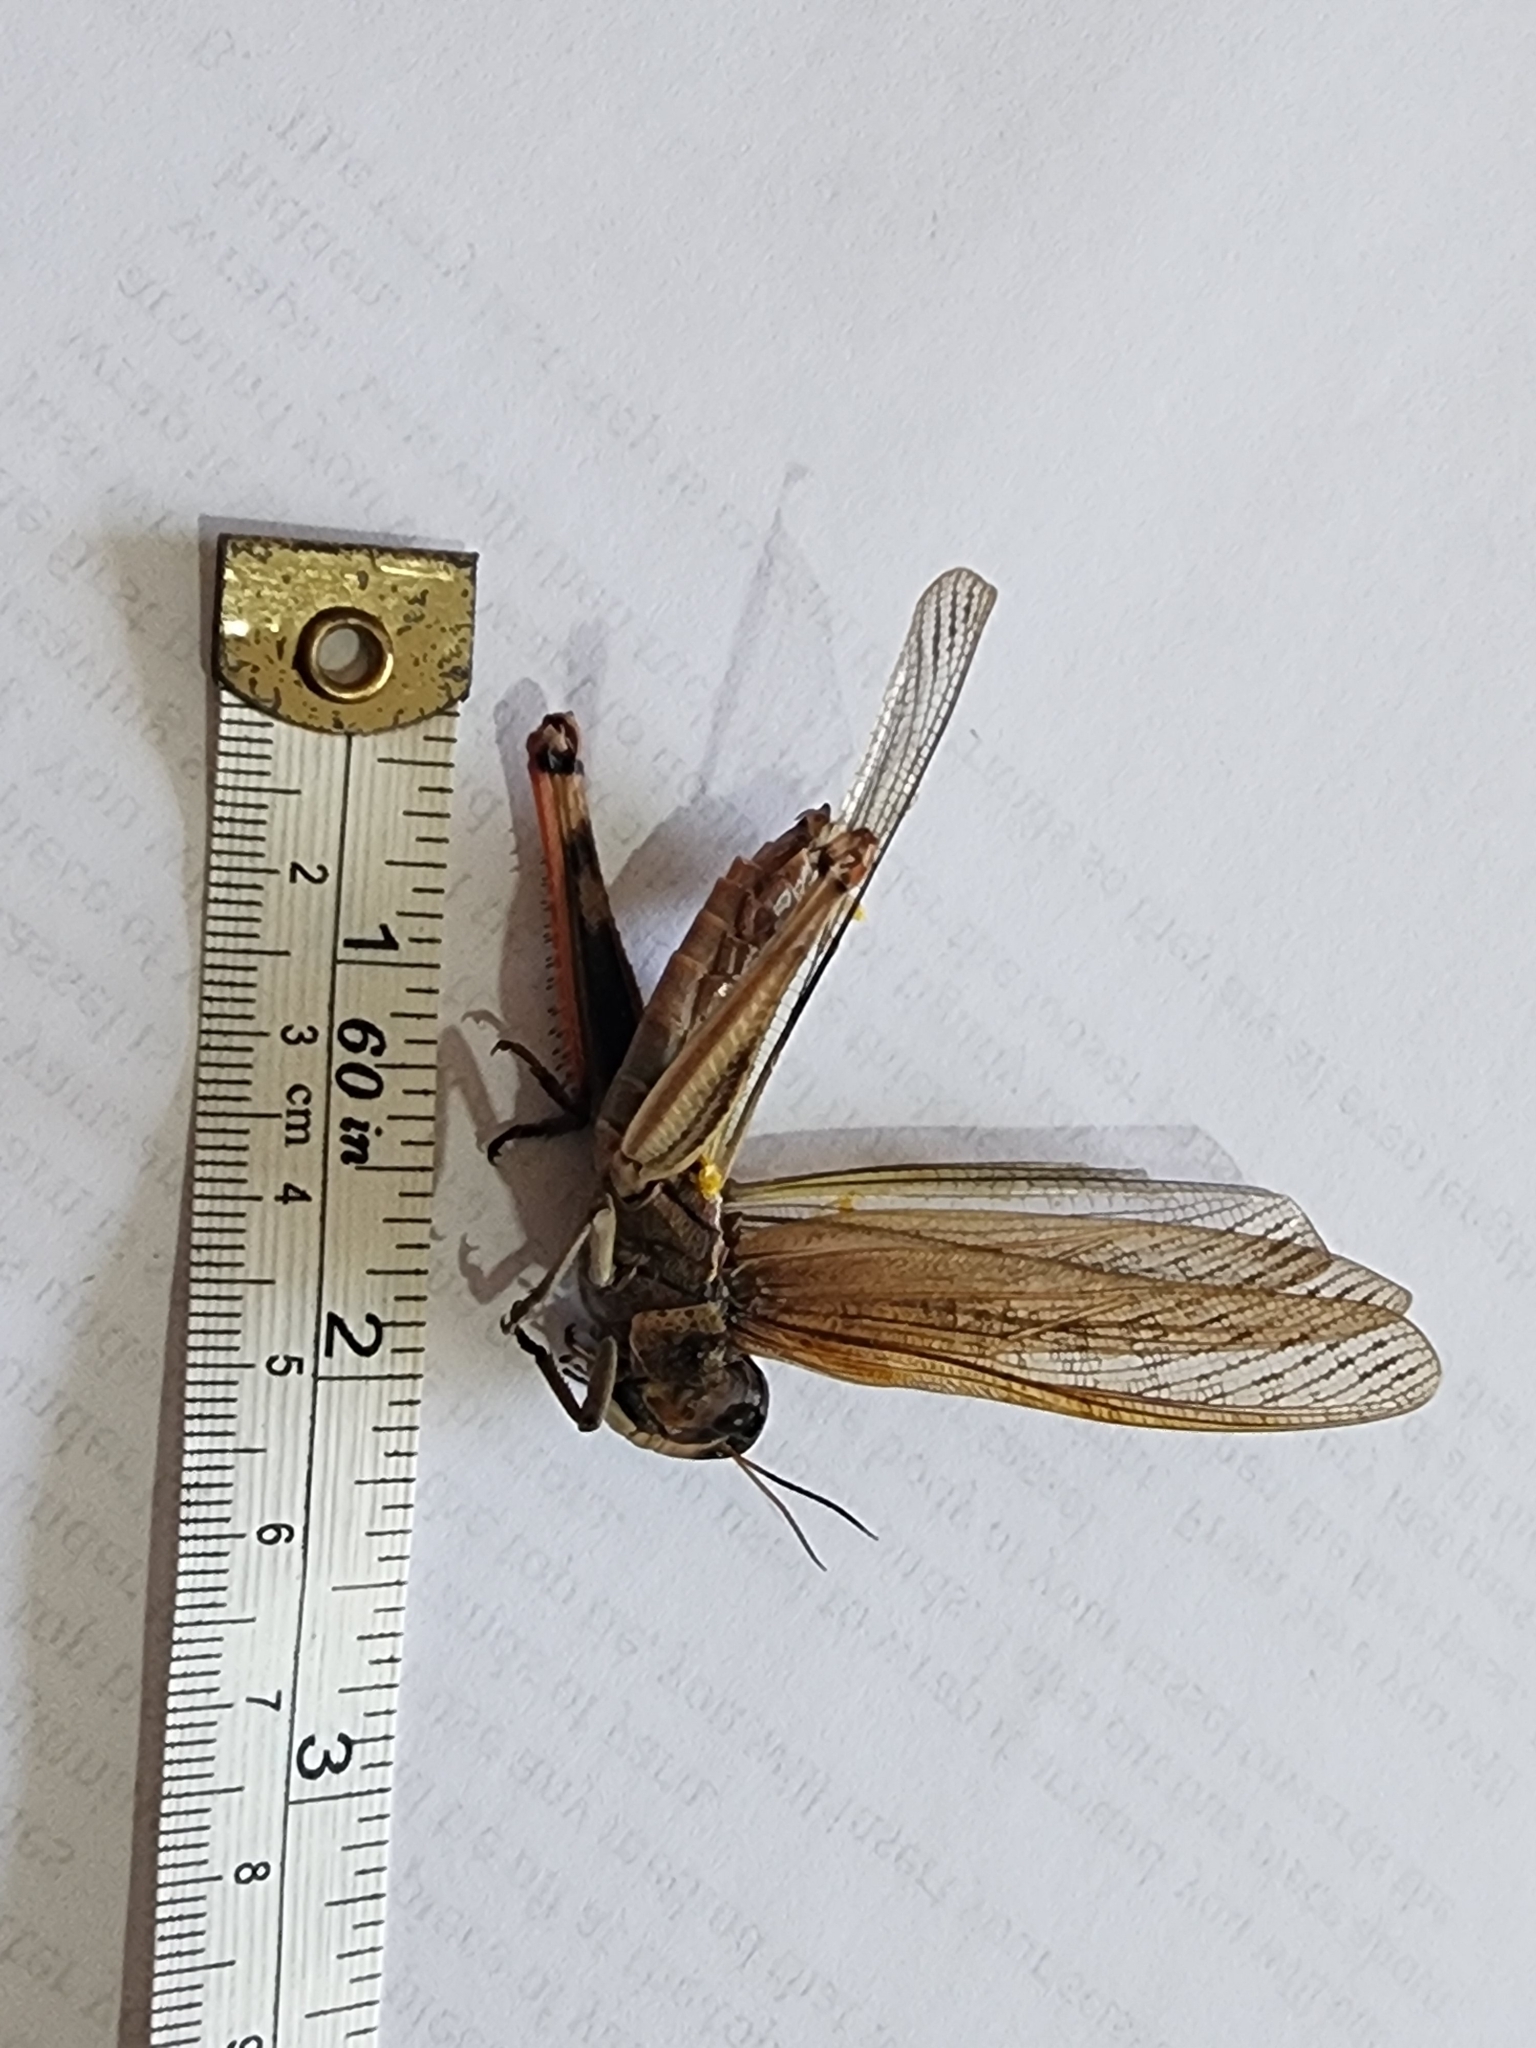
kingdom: Animalia
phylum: Arthropoda
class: Insecta
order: Orthoptera
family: Acrididae
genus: Locusta
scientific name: Locusta migratoria
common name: Migratory locust
